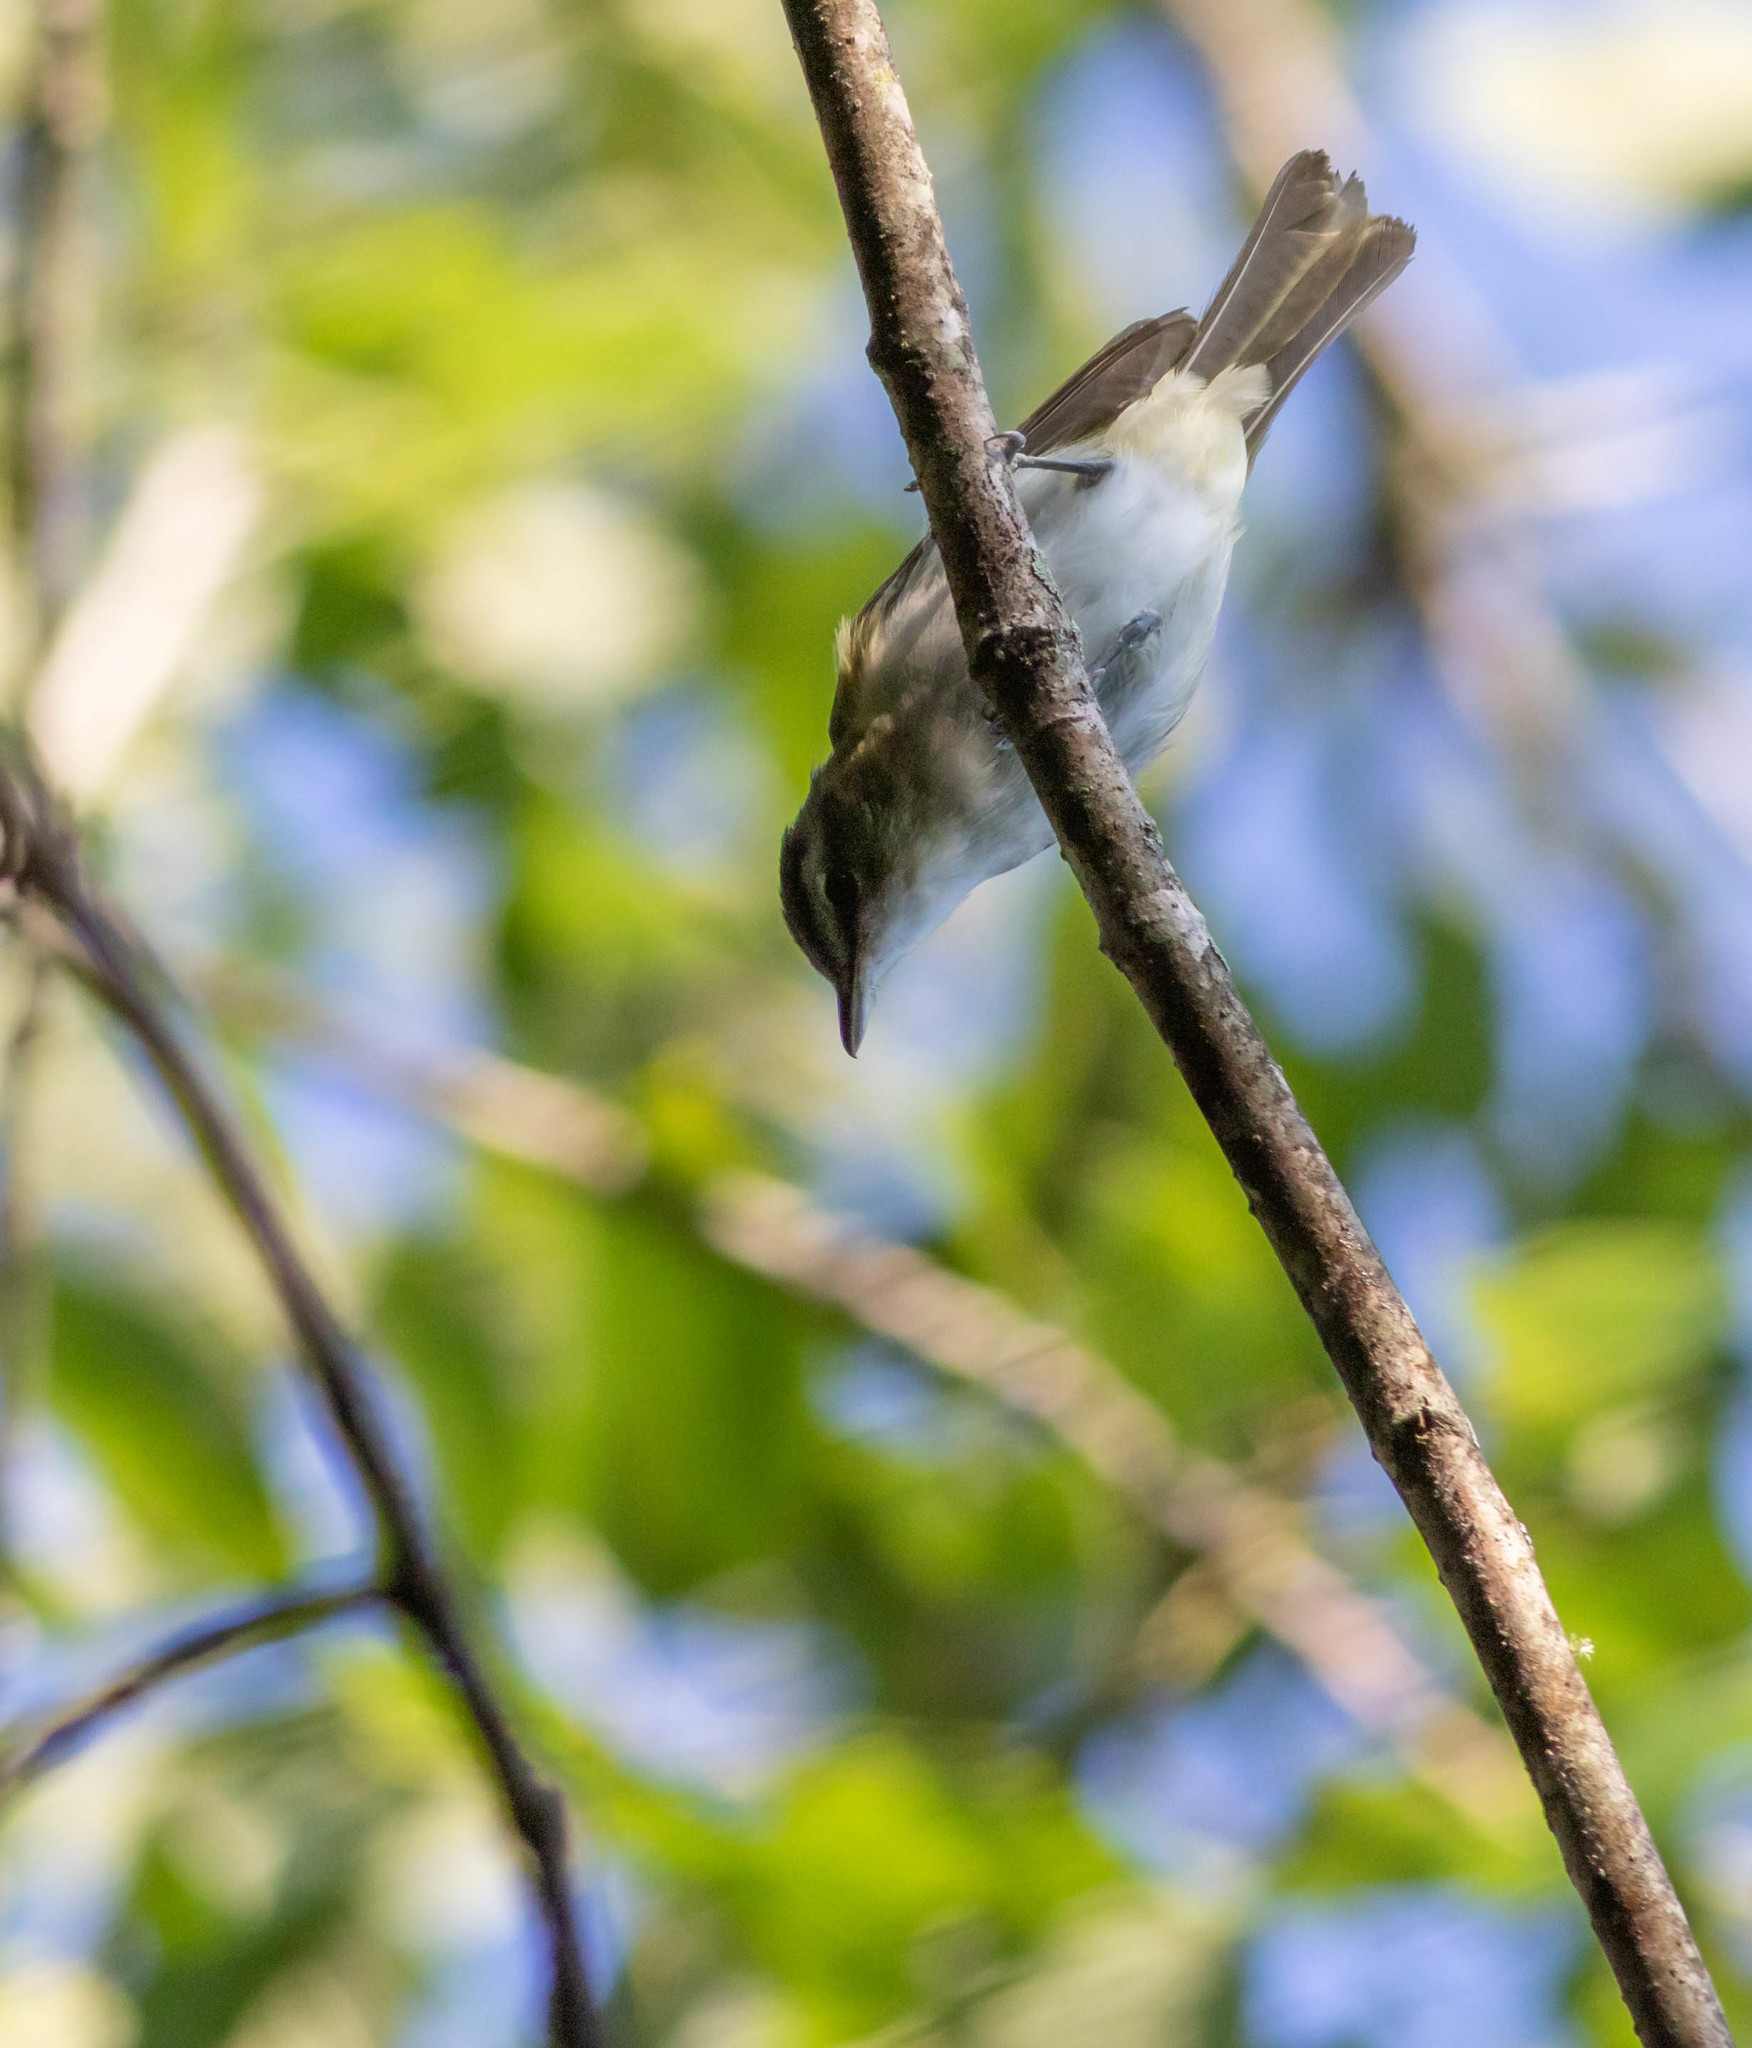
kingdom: Animalia
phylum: Chordata
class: Aves
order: Passeriformes
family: Vireonidae
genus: Vireo
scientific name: Vireo olivaceus
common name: Red-eyed vireo
